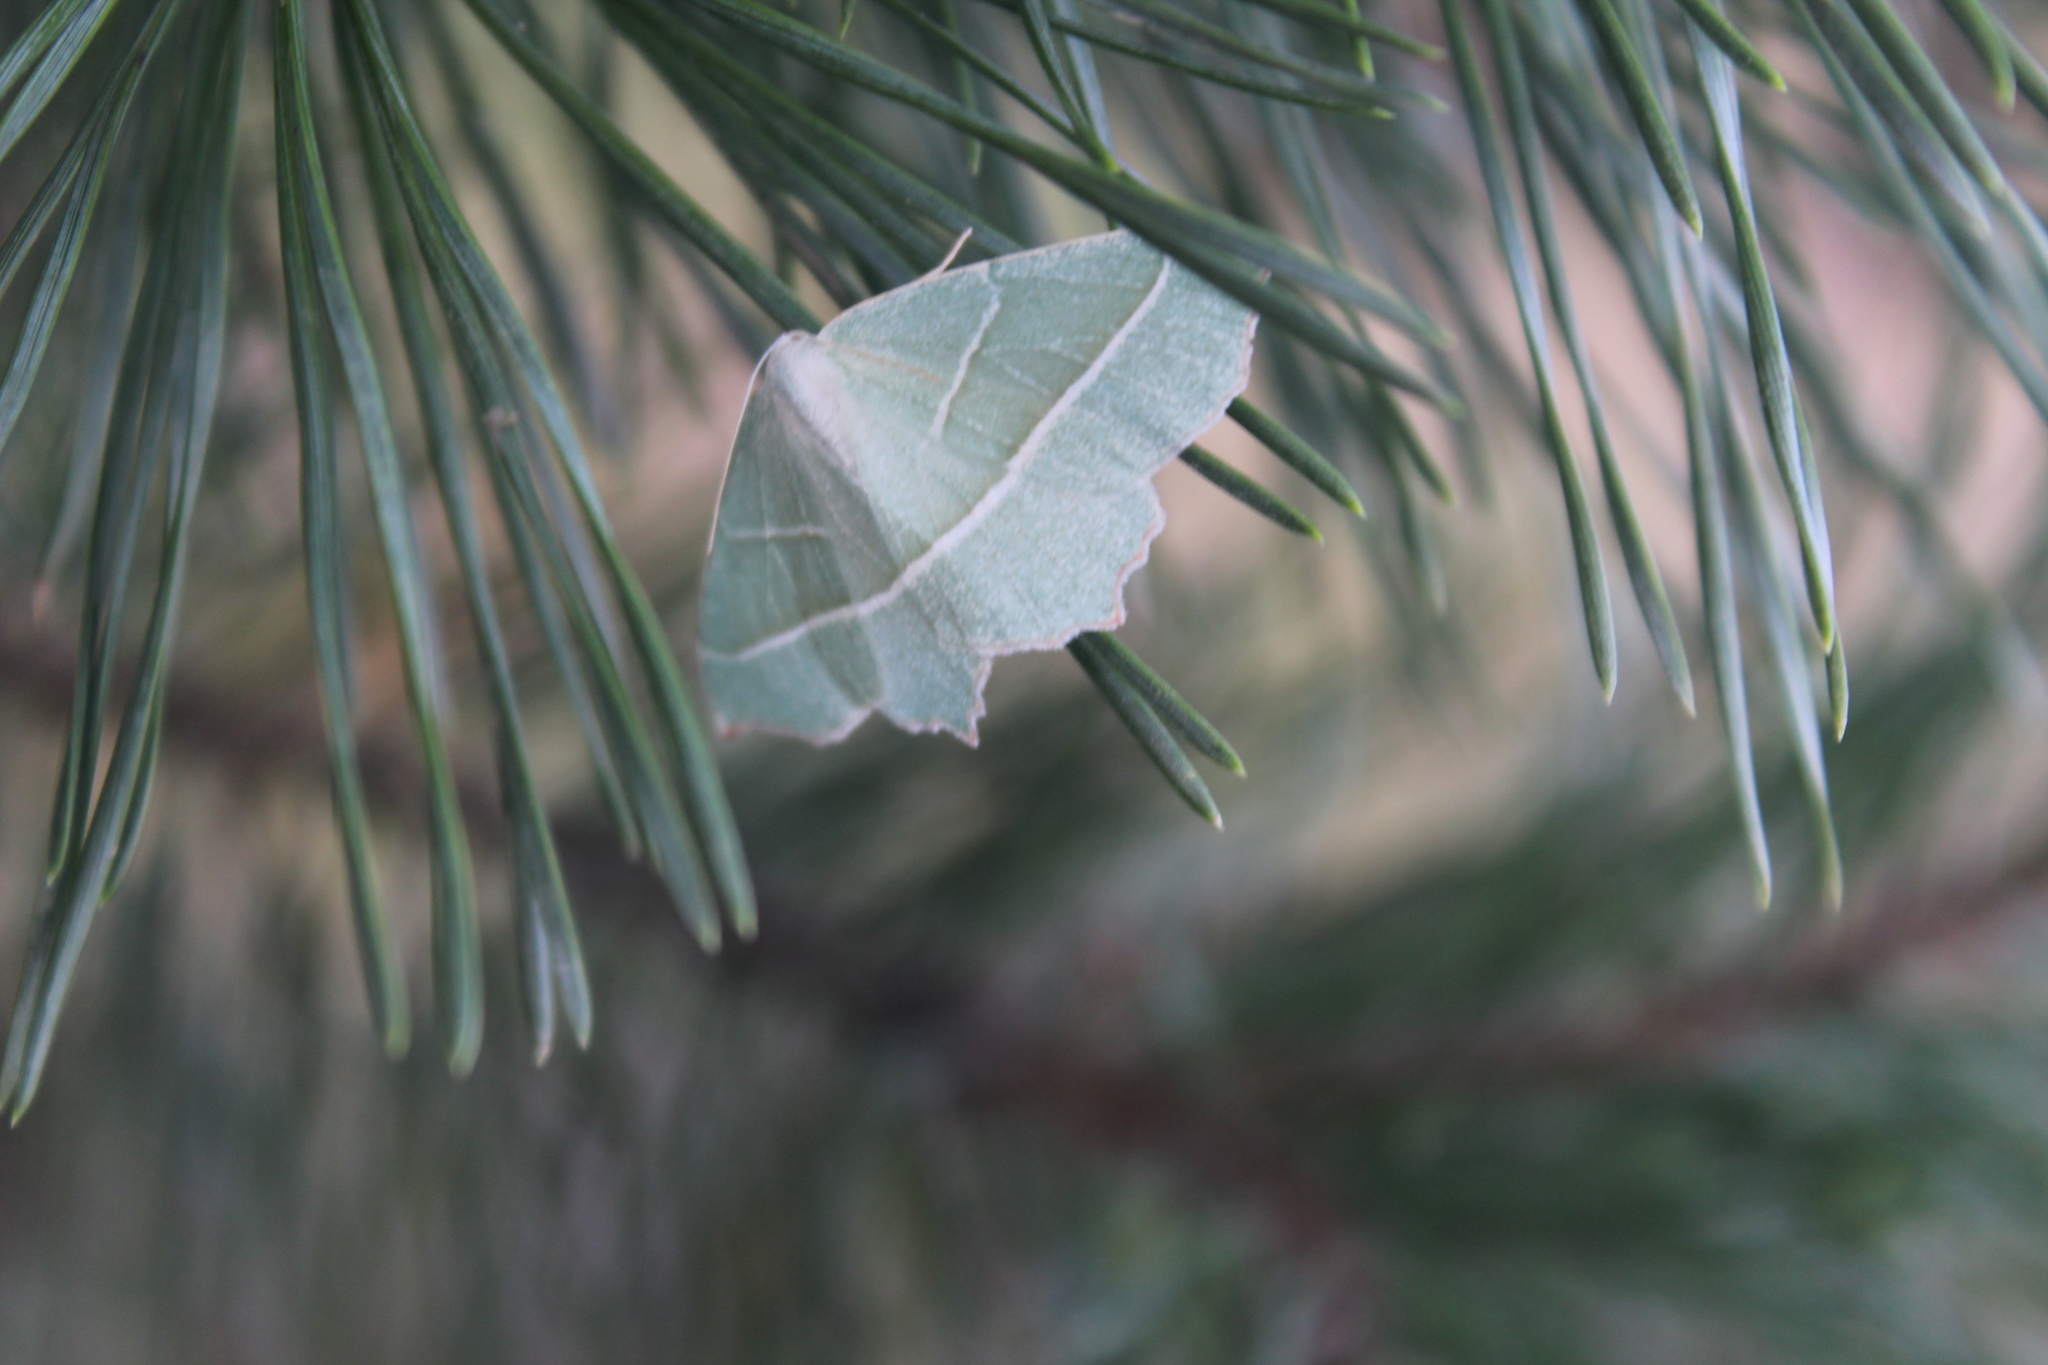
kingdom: Animalia
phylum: Arthropoda
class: Insecta
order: Lepidoptera
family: Geometridae
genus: Campaea
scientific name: Campaea margaritaria
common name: Light emerald
